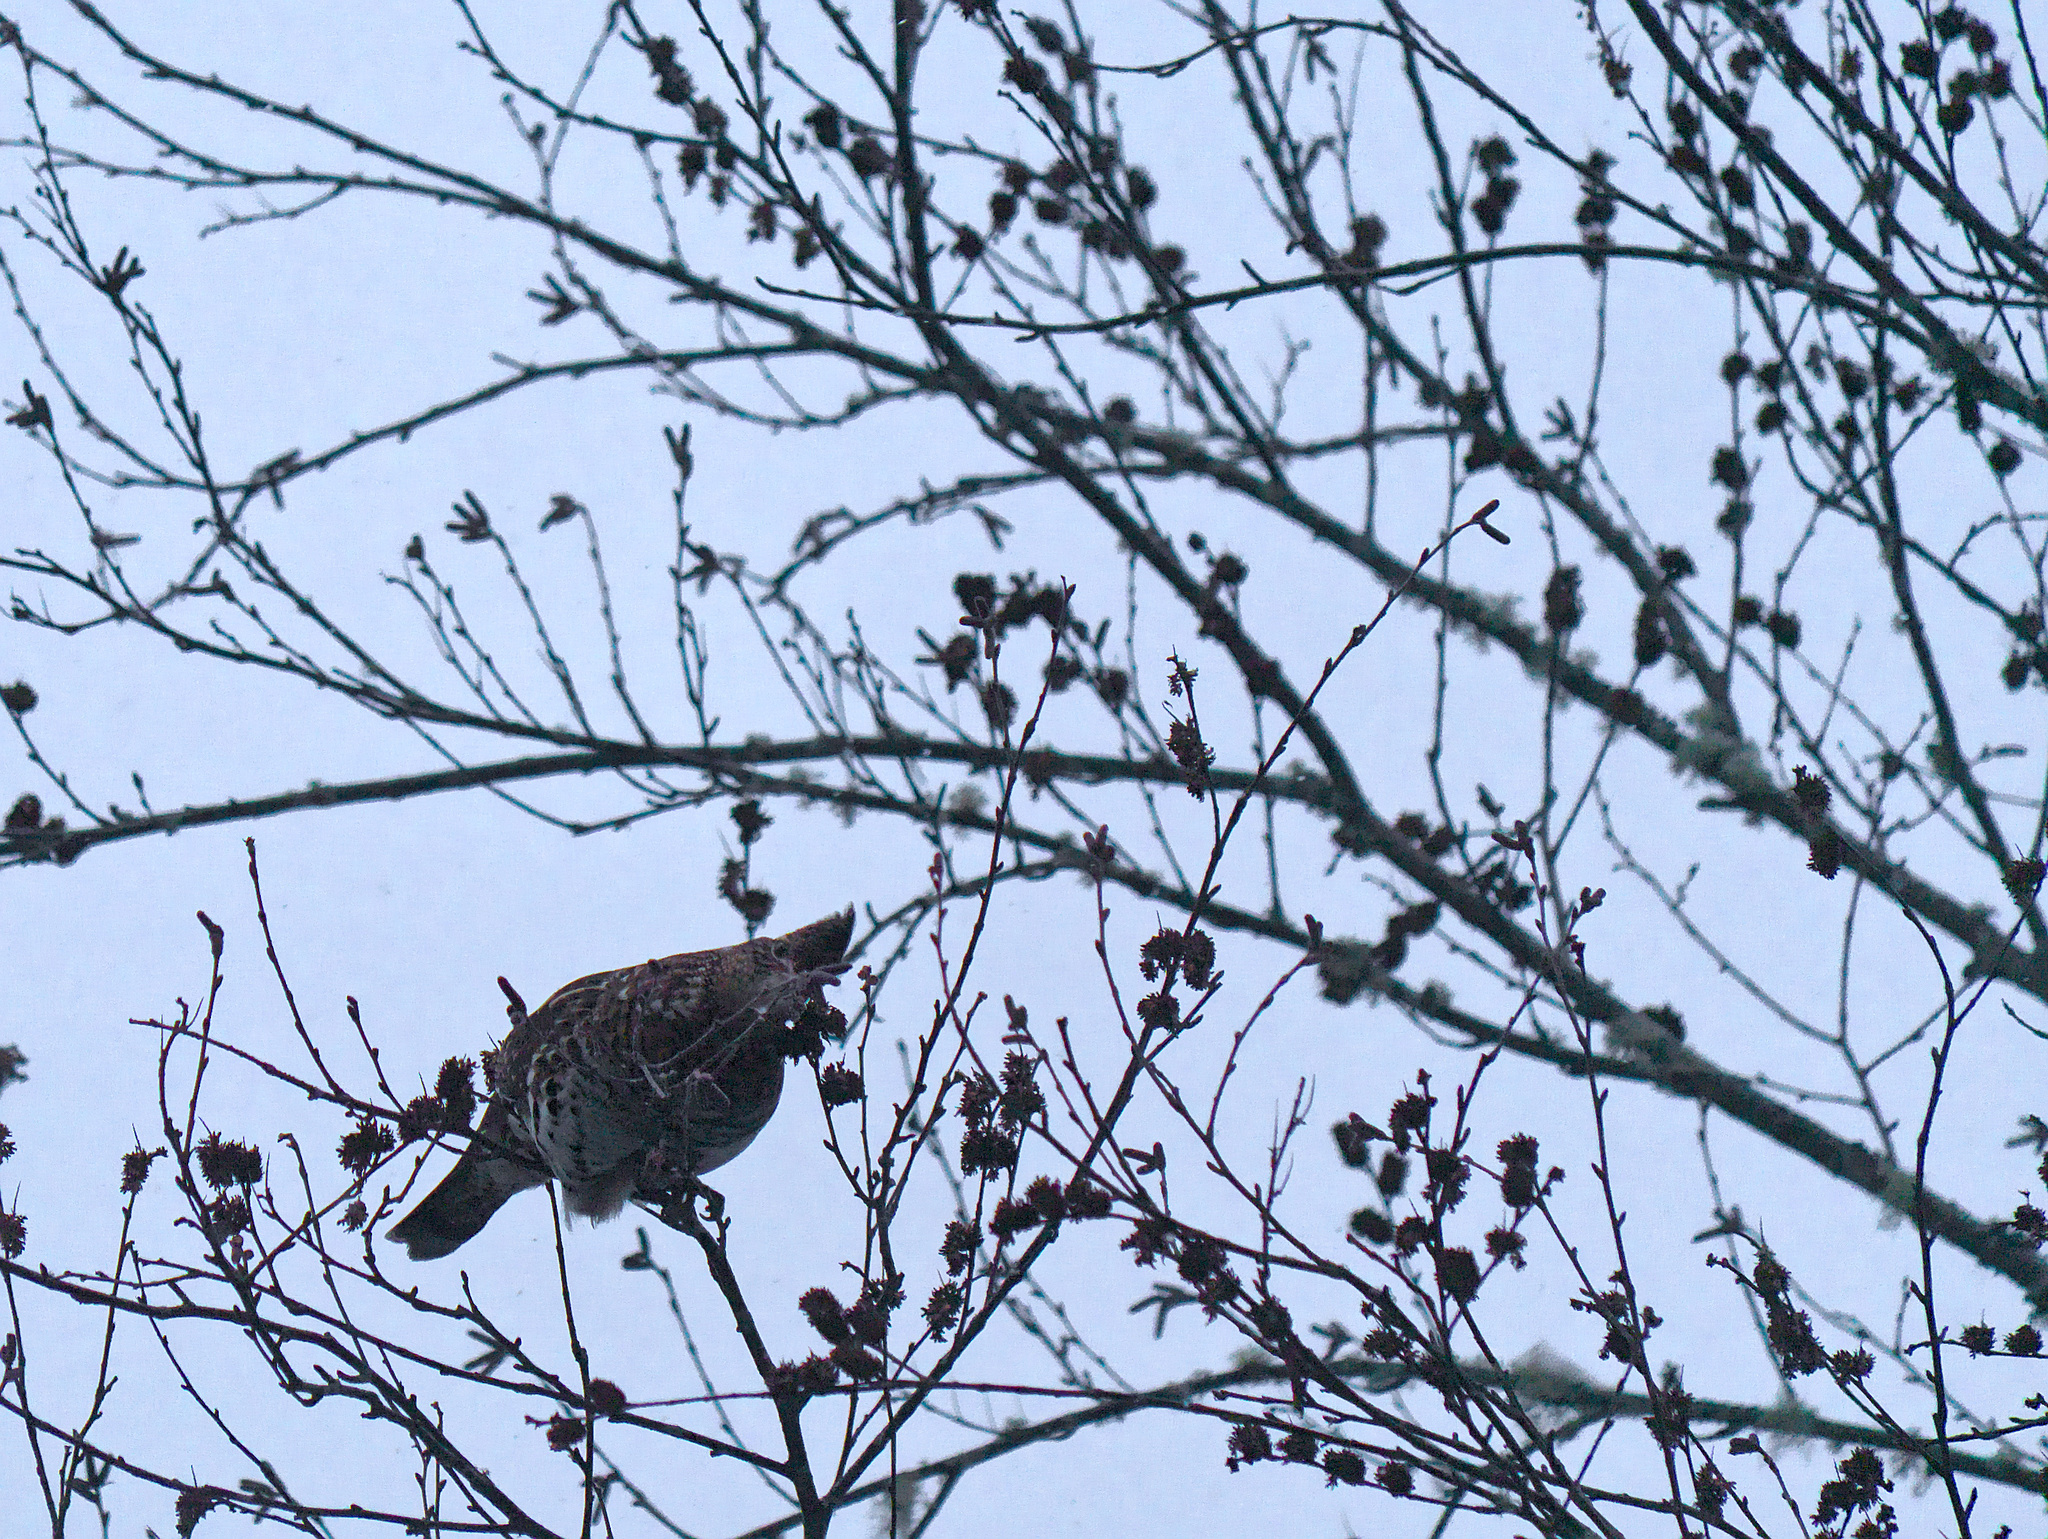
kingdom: Animalia
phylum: Chordata
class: Aves
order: Galliformes
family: Phasianidae
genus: Bonasa
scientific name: Bonasa umbellus
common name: Ruffed grouse
